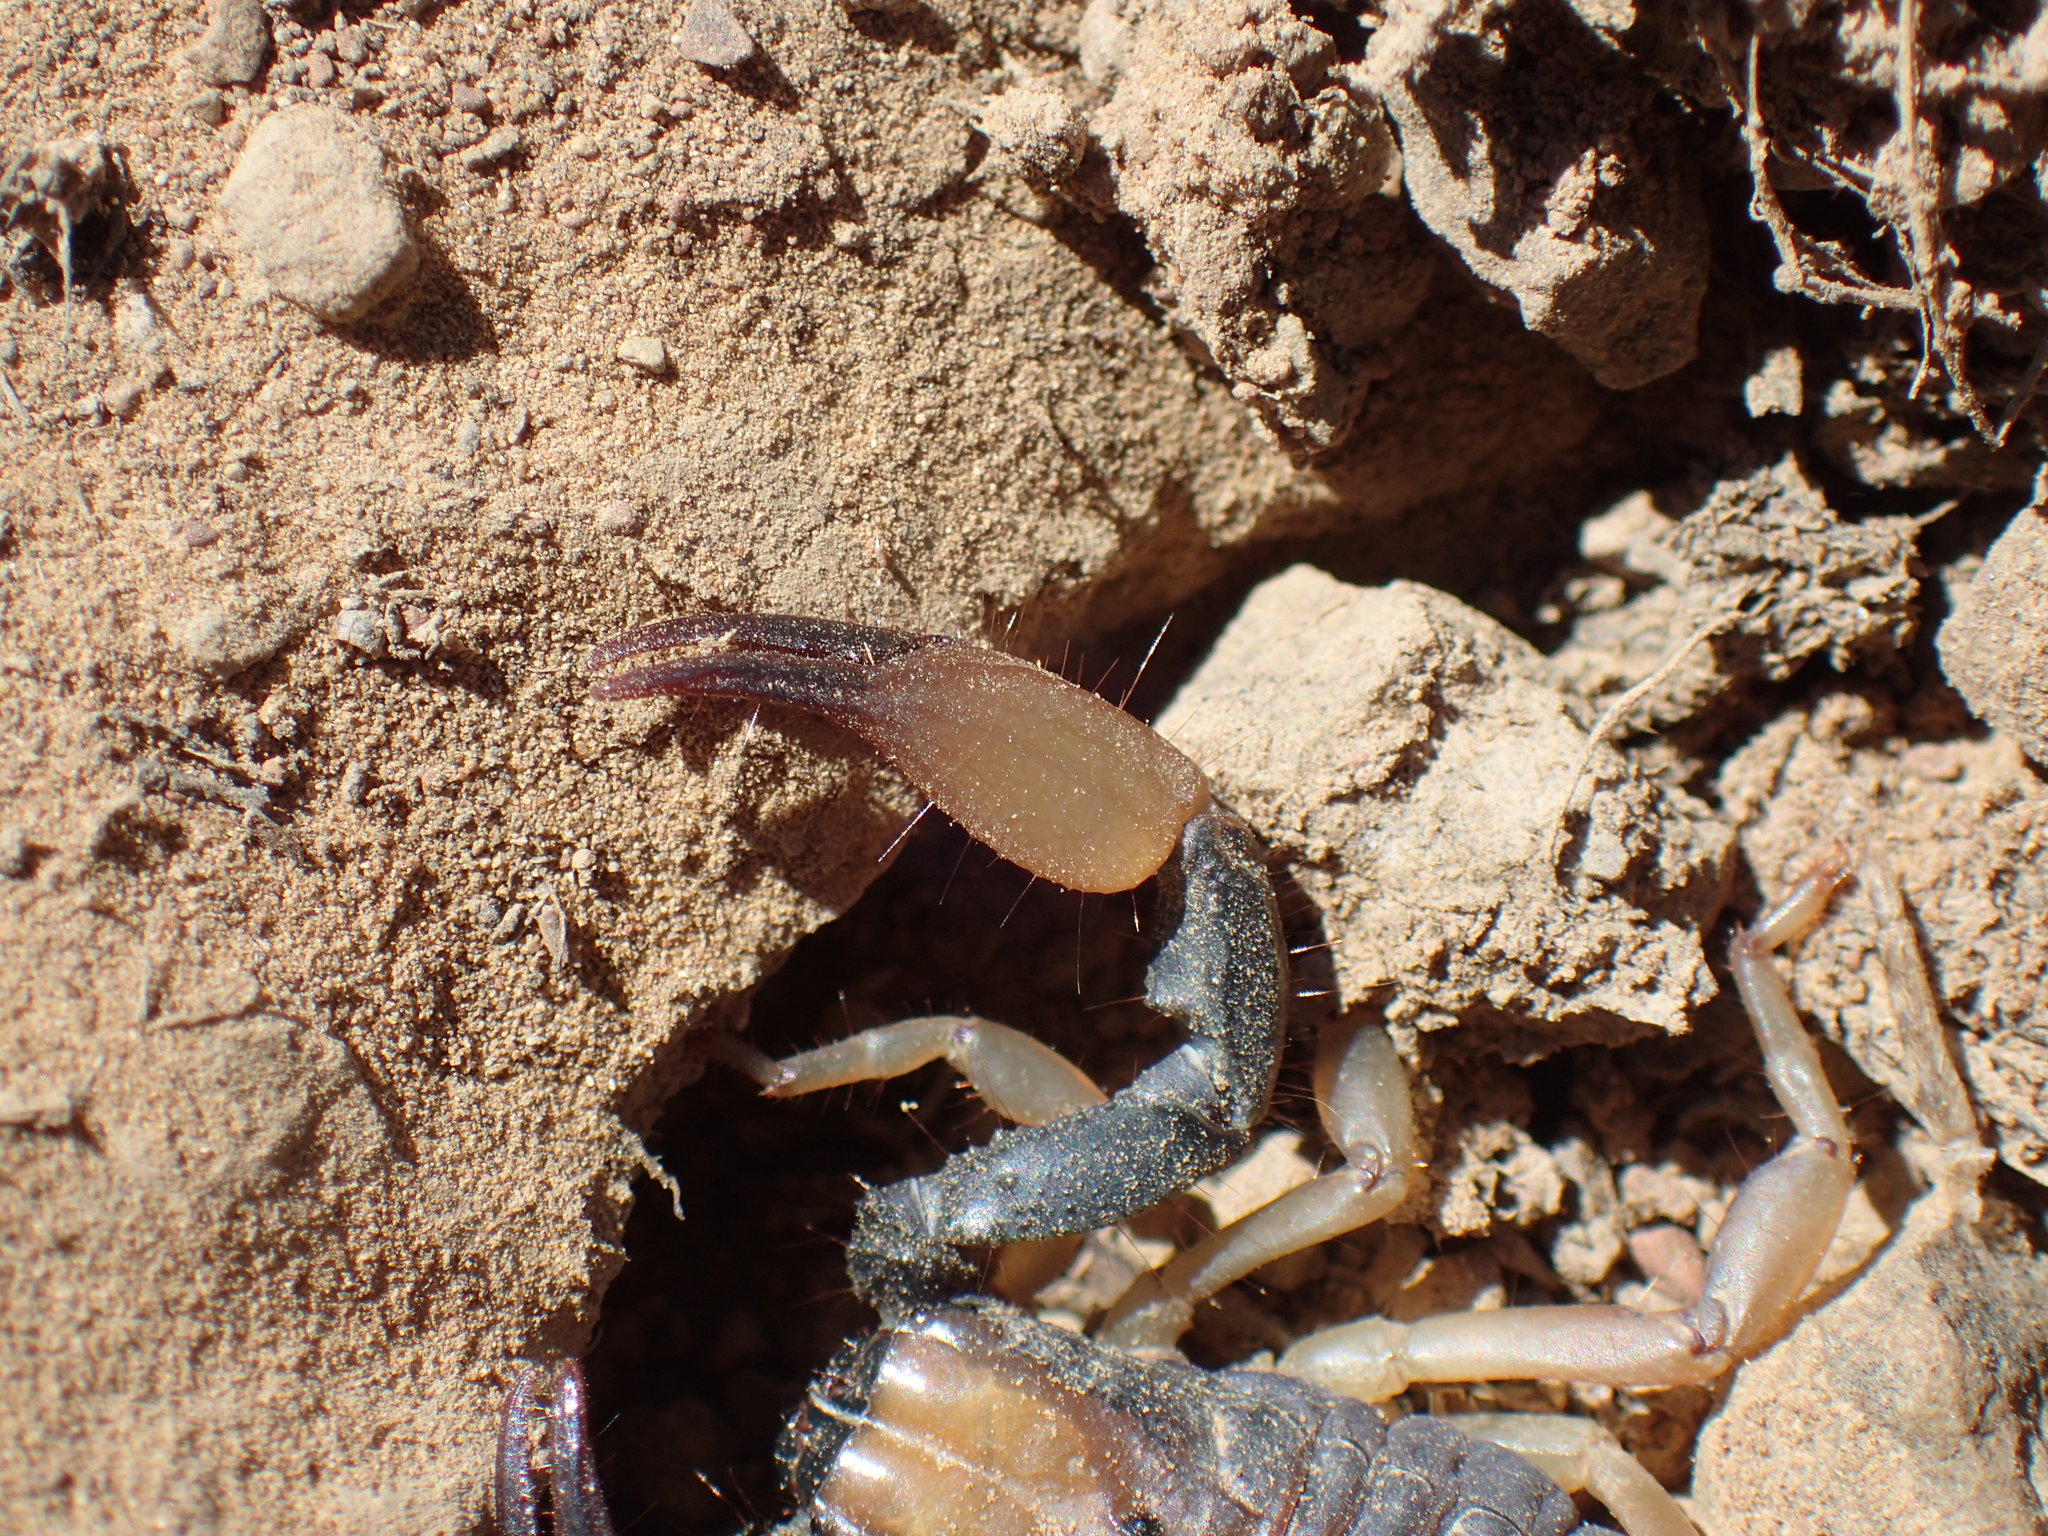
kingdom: Animalia
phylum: Arthropoda
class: Arachnida
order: Scorpiones
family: Scorpionidae
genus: Opistophthalmus
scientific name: Opistophthalmus karrooensis
